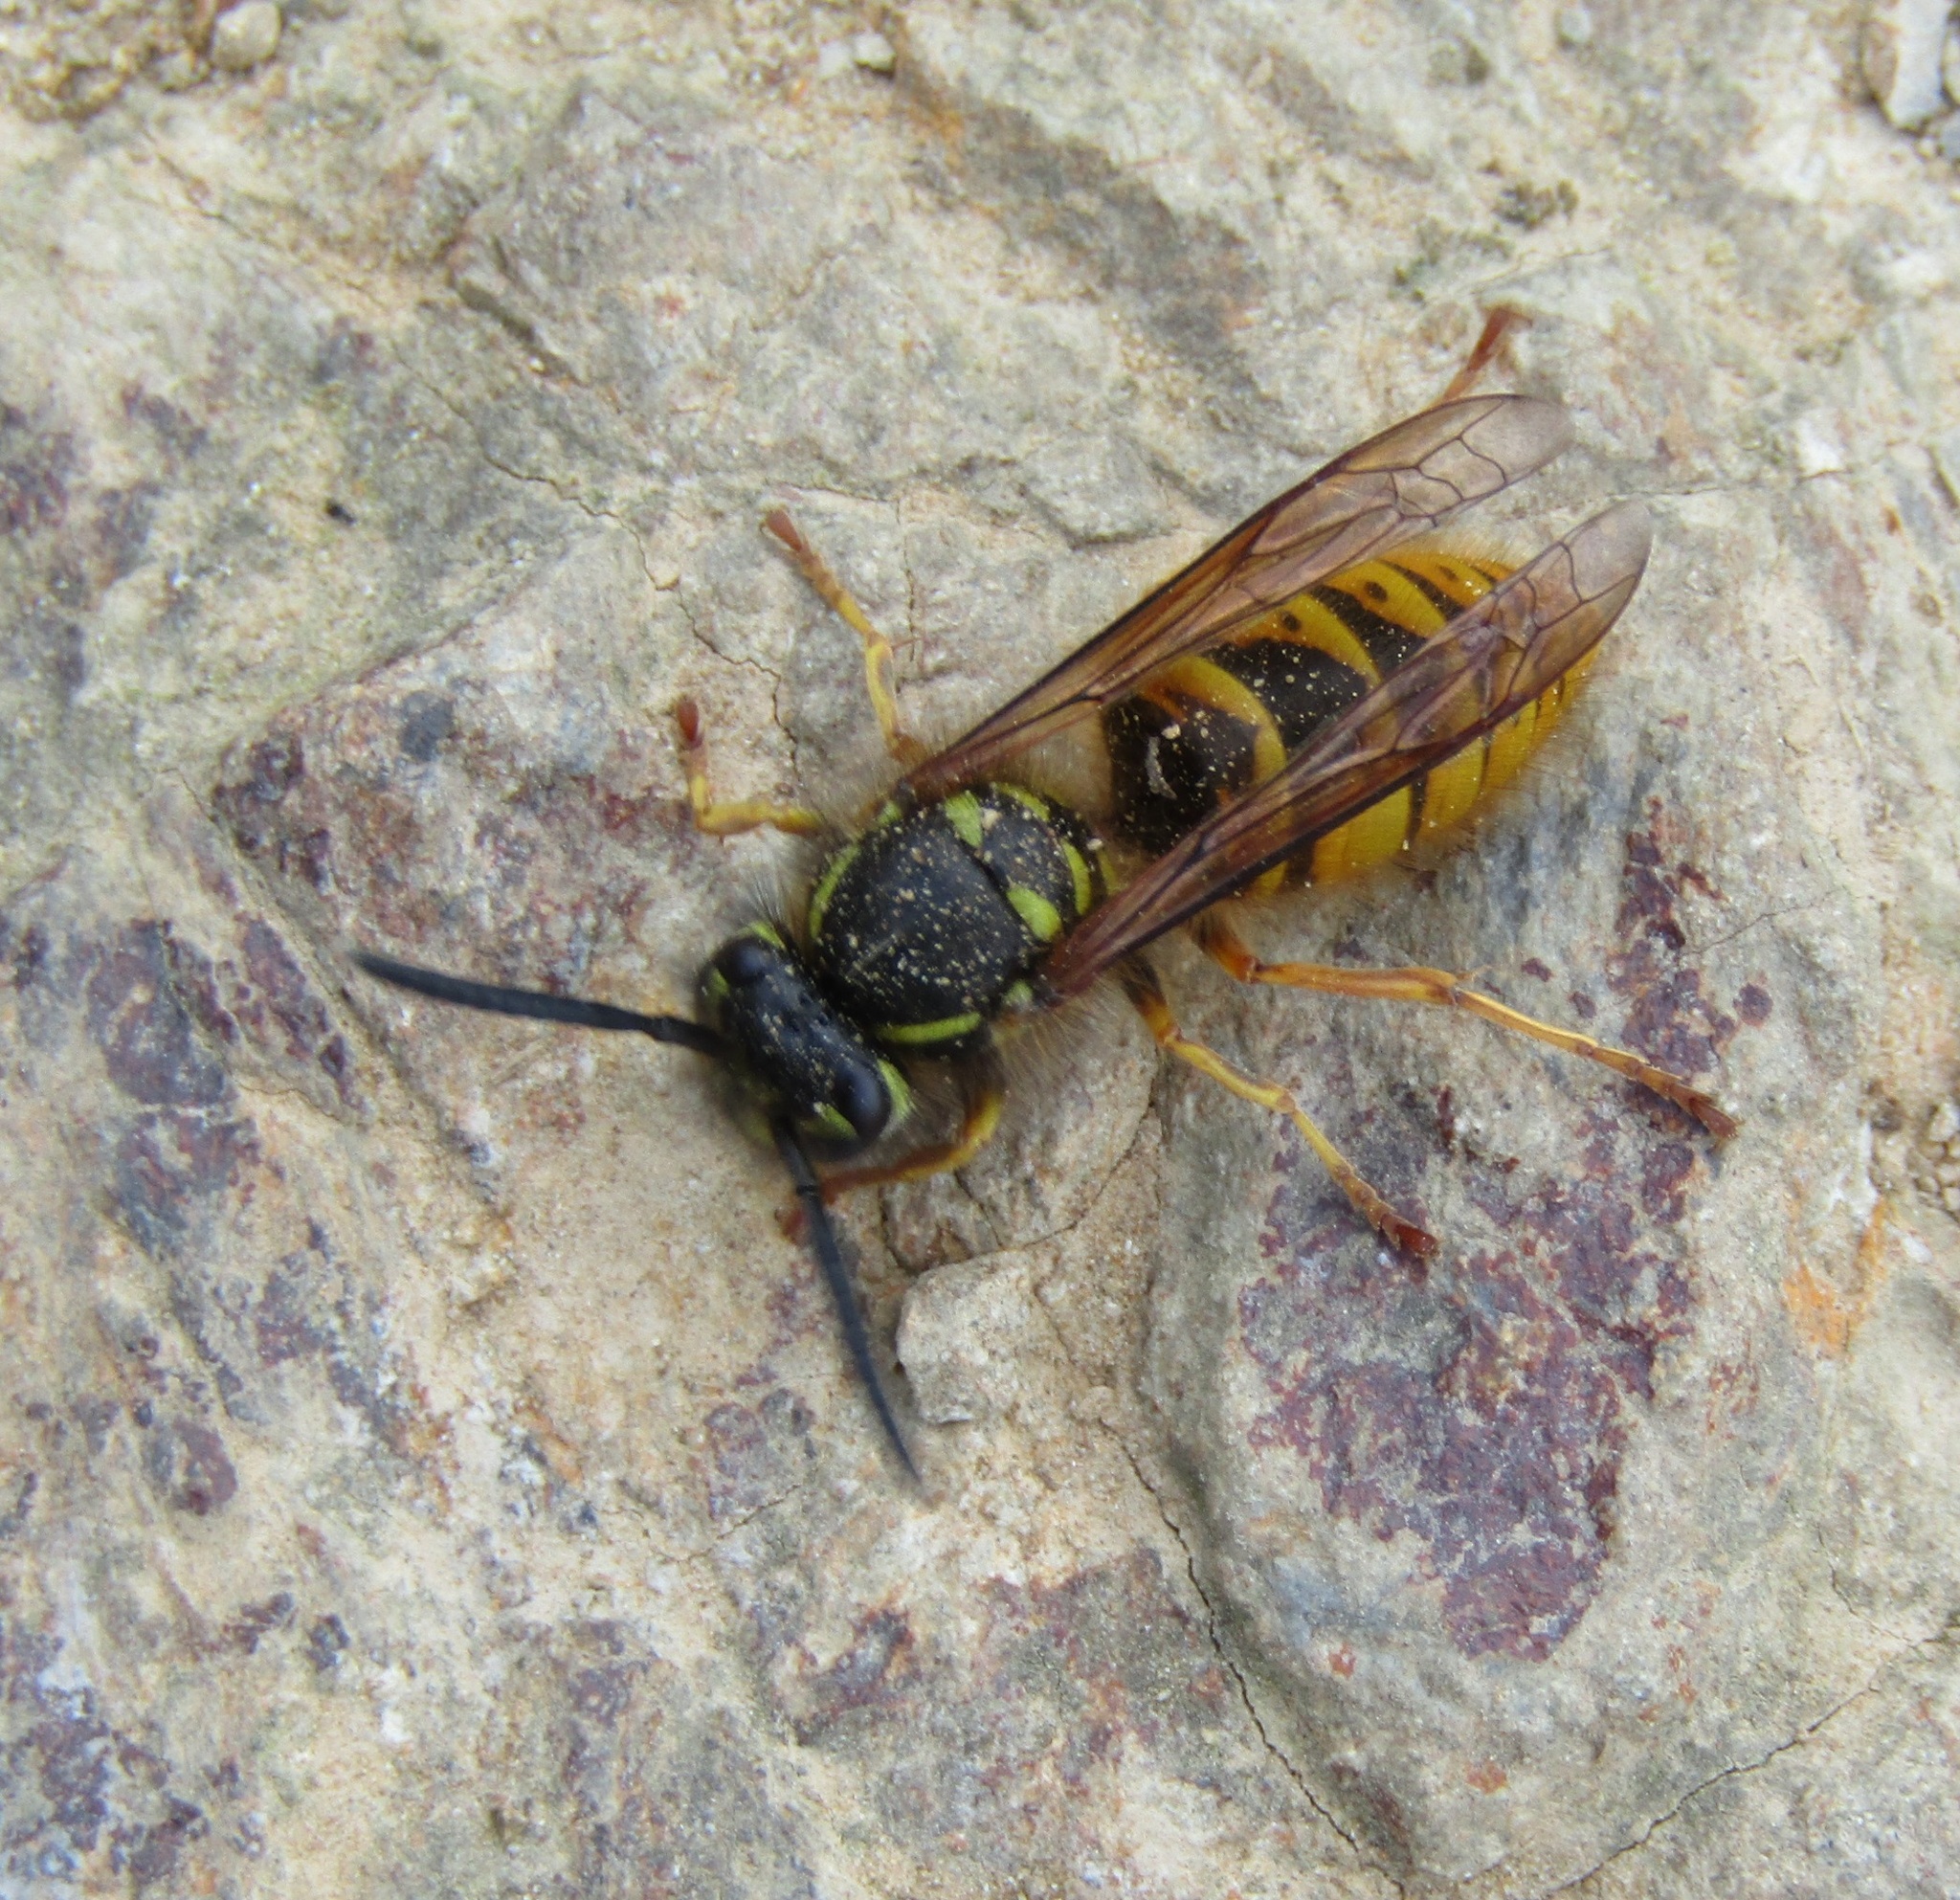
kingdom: Animalia
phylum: Arthropoda
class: Insecta
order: Hymenoptera
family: Vespidae
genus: Vespula
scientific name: Vespula vulgaris
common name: Common wasp
